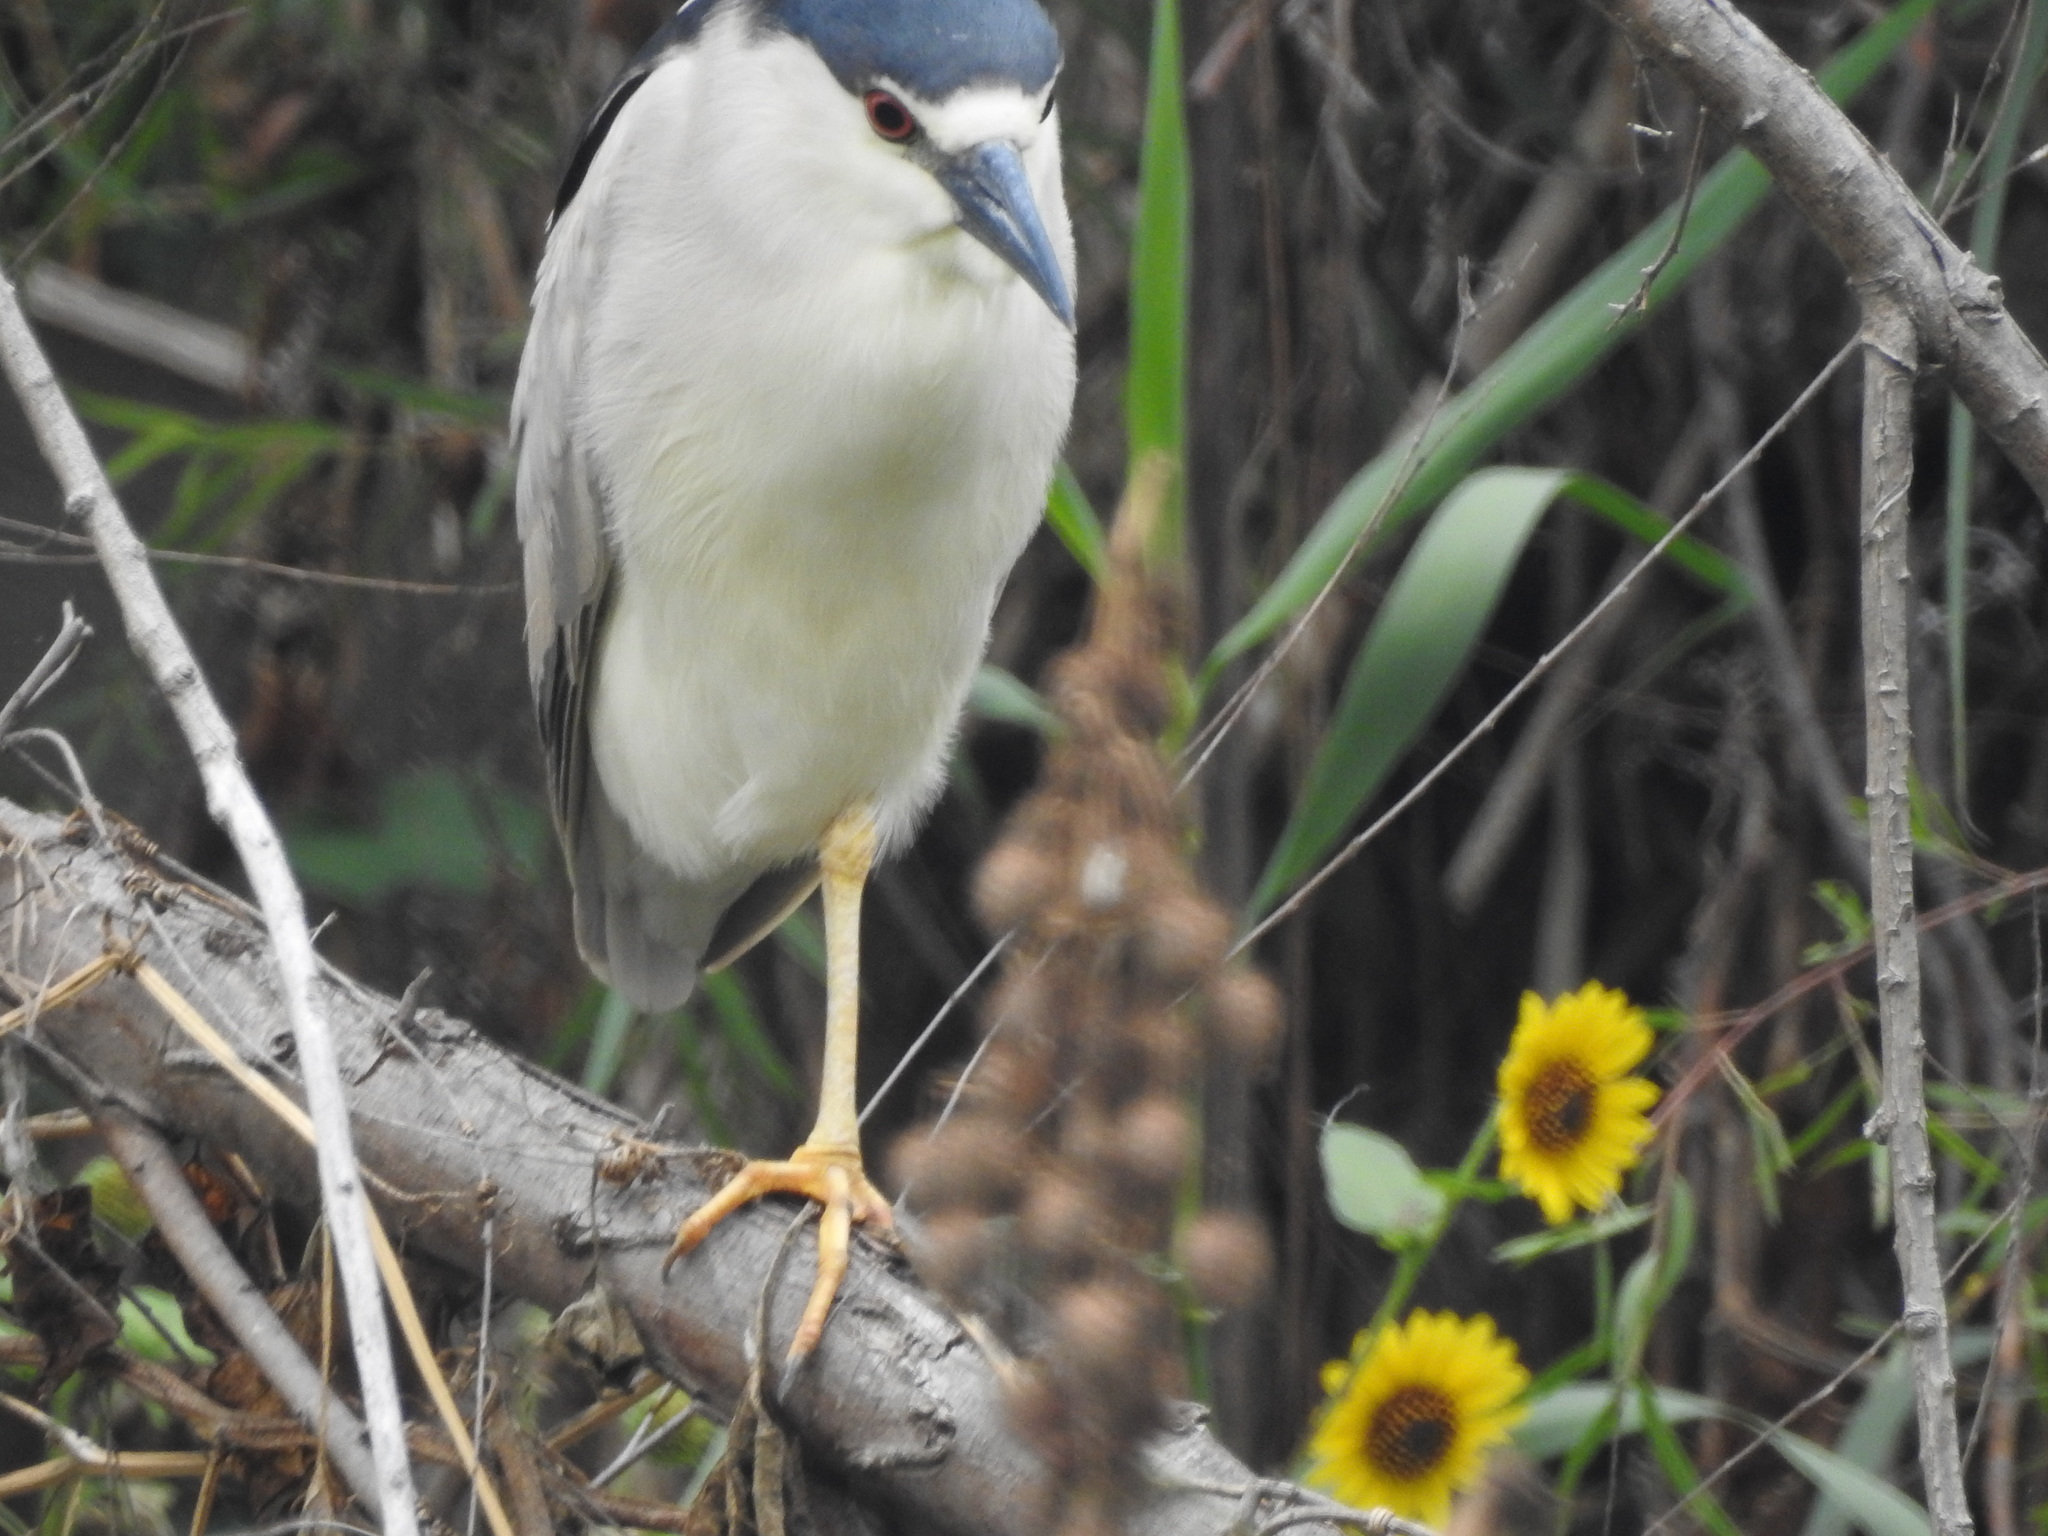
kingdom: Animalia
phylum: Chordata
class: Aves
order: Pelecaniformes
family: Ardeidae
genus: Nycticorax
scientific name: Nycticorax nycticorax
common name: Black-crowned night heron
